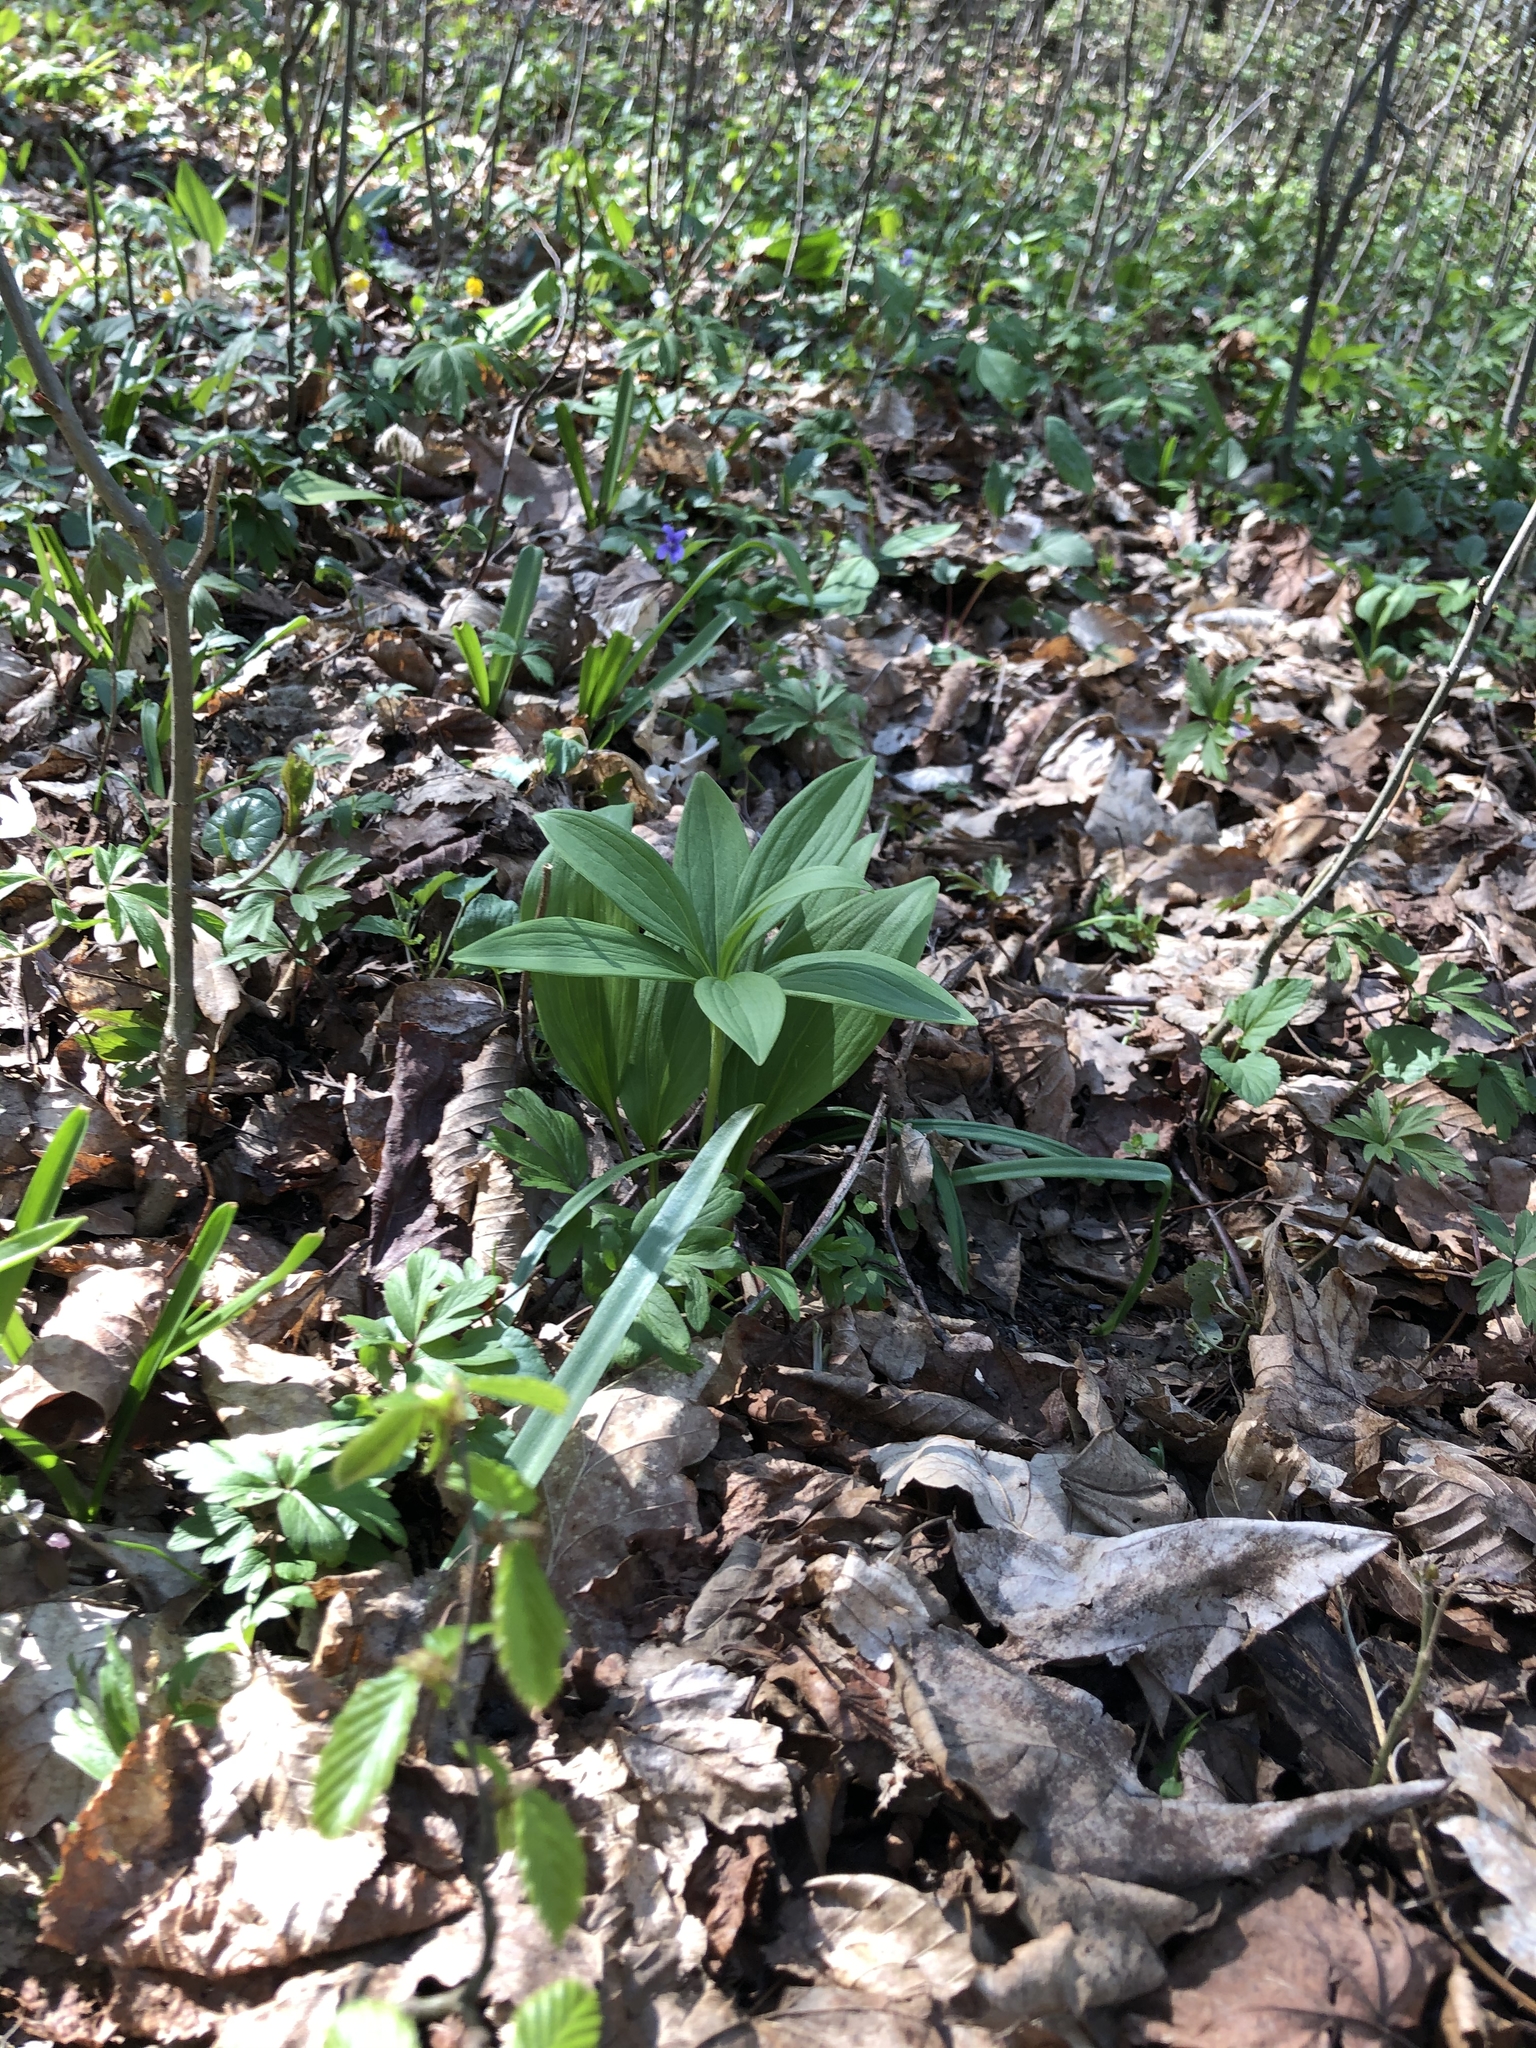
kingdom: Plantae
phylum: Tracheophyta
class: Liliopsida
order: Liliales
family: Liliaceae
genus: Lilium
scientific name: Lilium martagon
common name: Martagon lily
